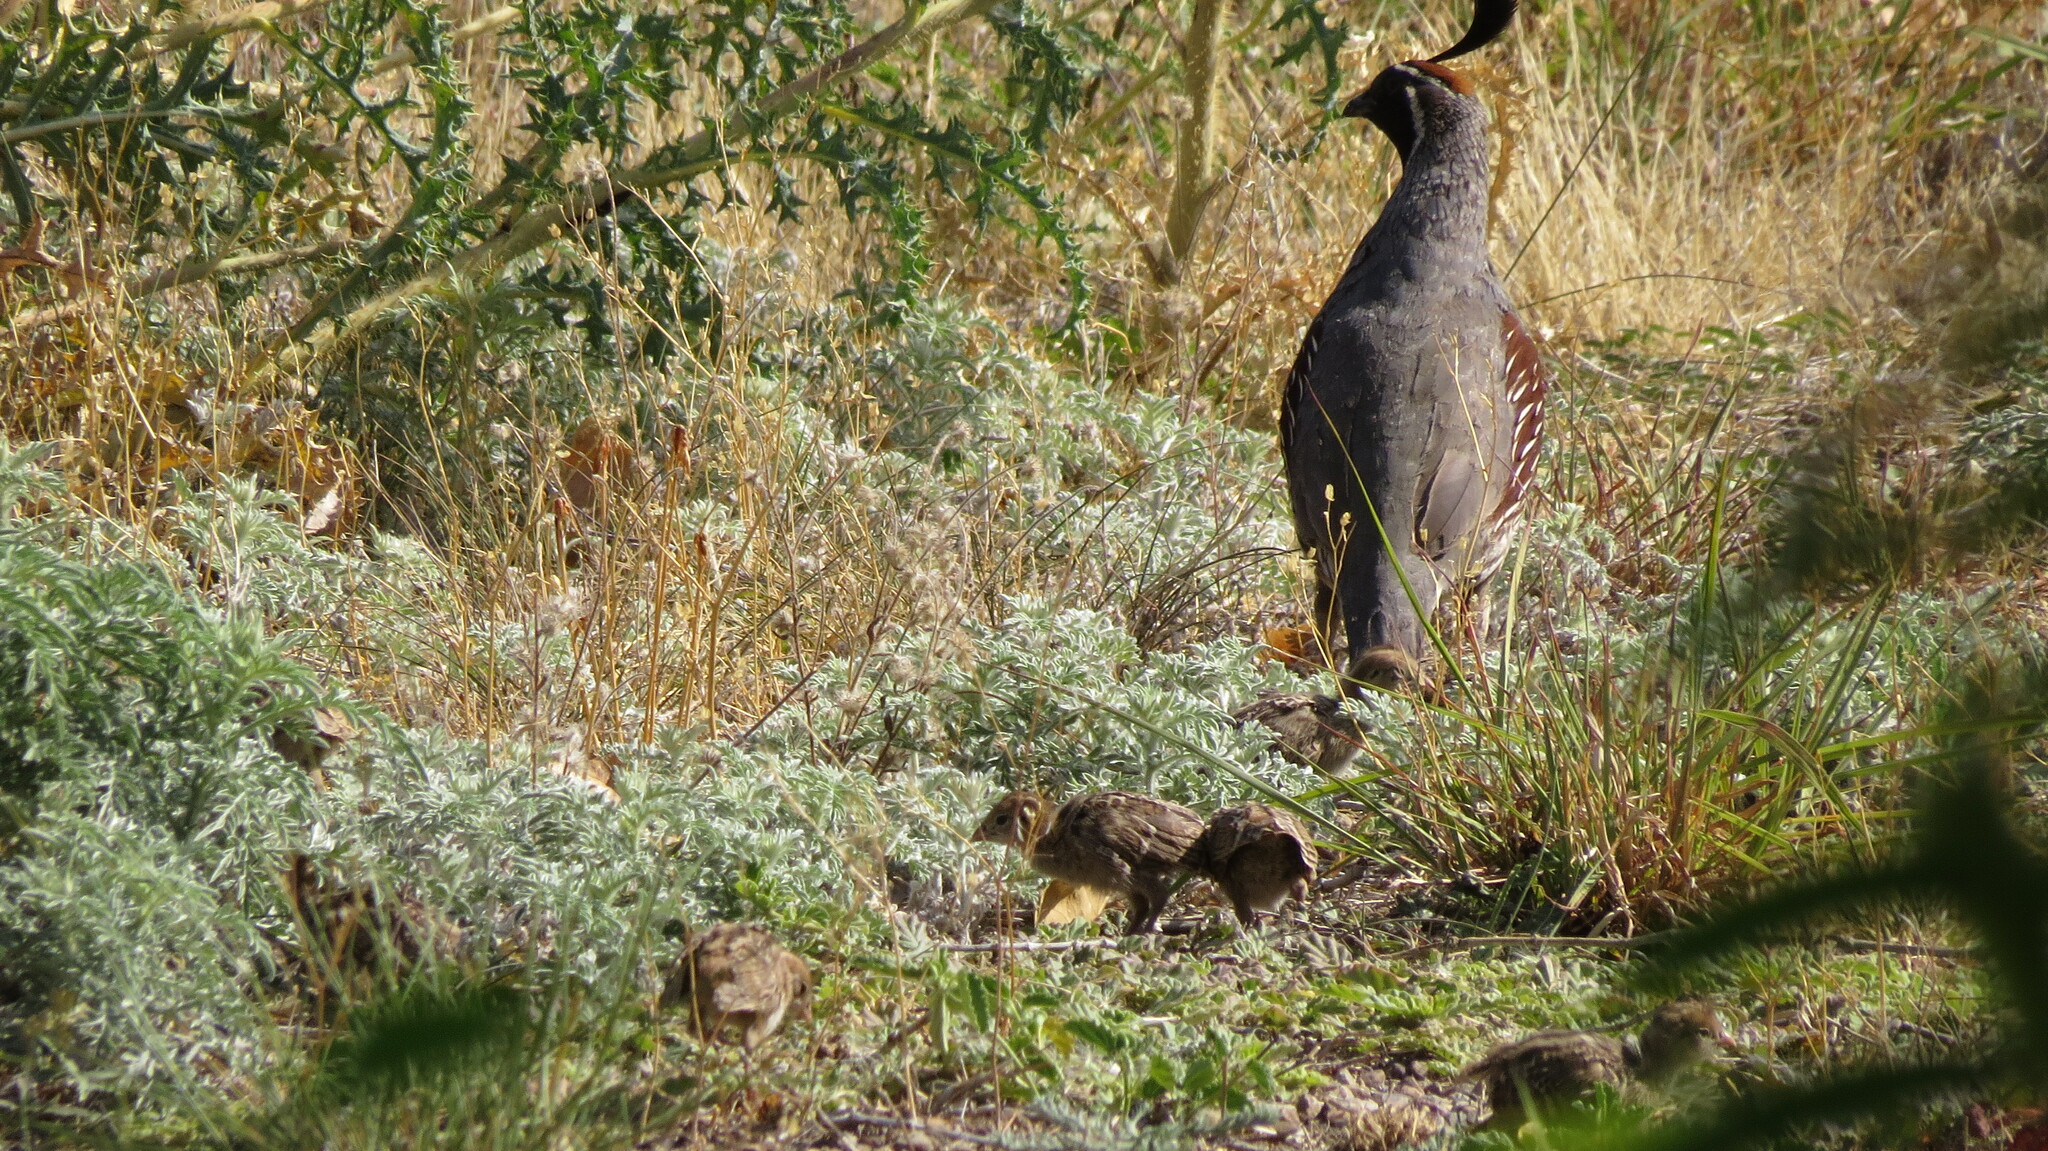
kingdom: Animalia
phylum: Chordata
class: Aves
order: Galliformes
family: Odontophoridae
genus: Callipepla
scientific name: Callipepla gambelii
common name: Gambel's quail
